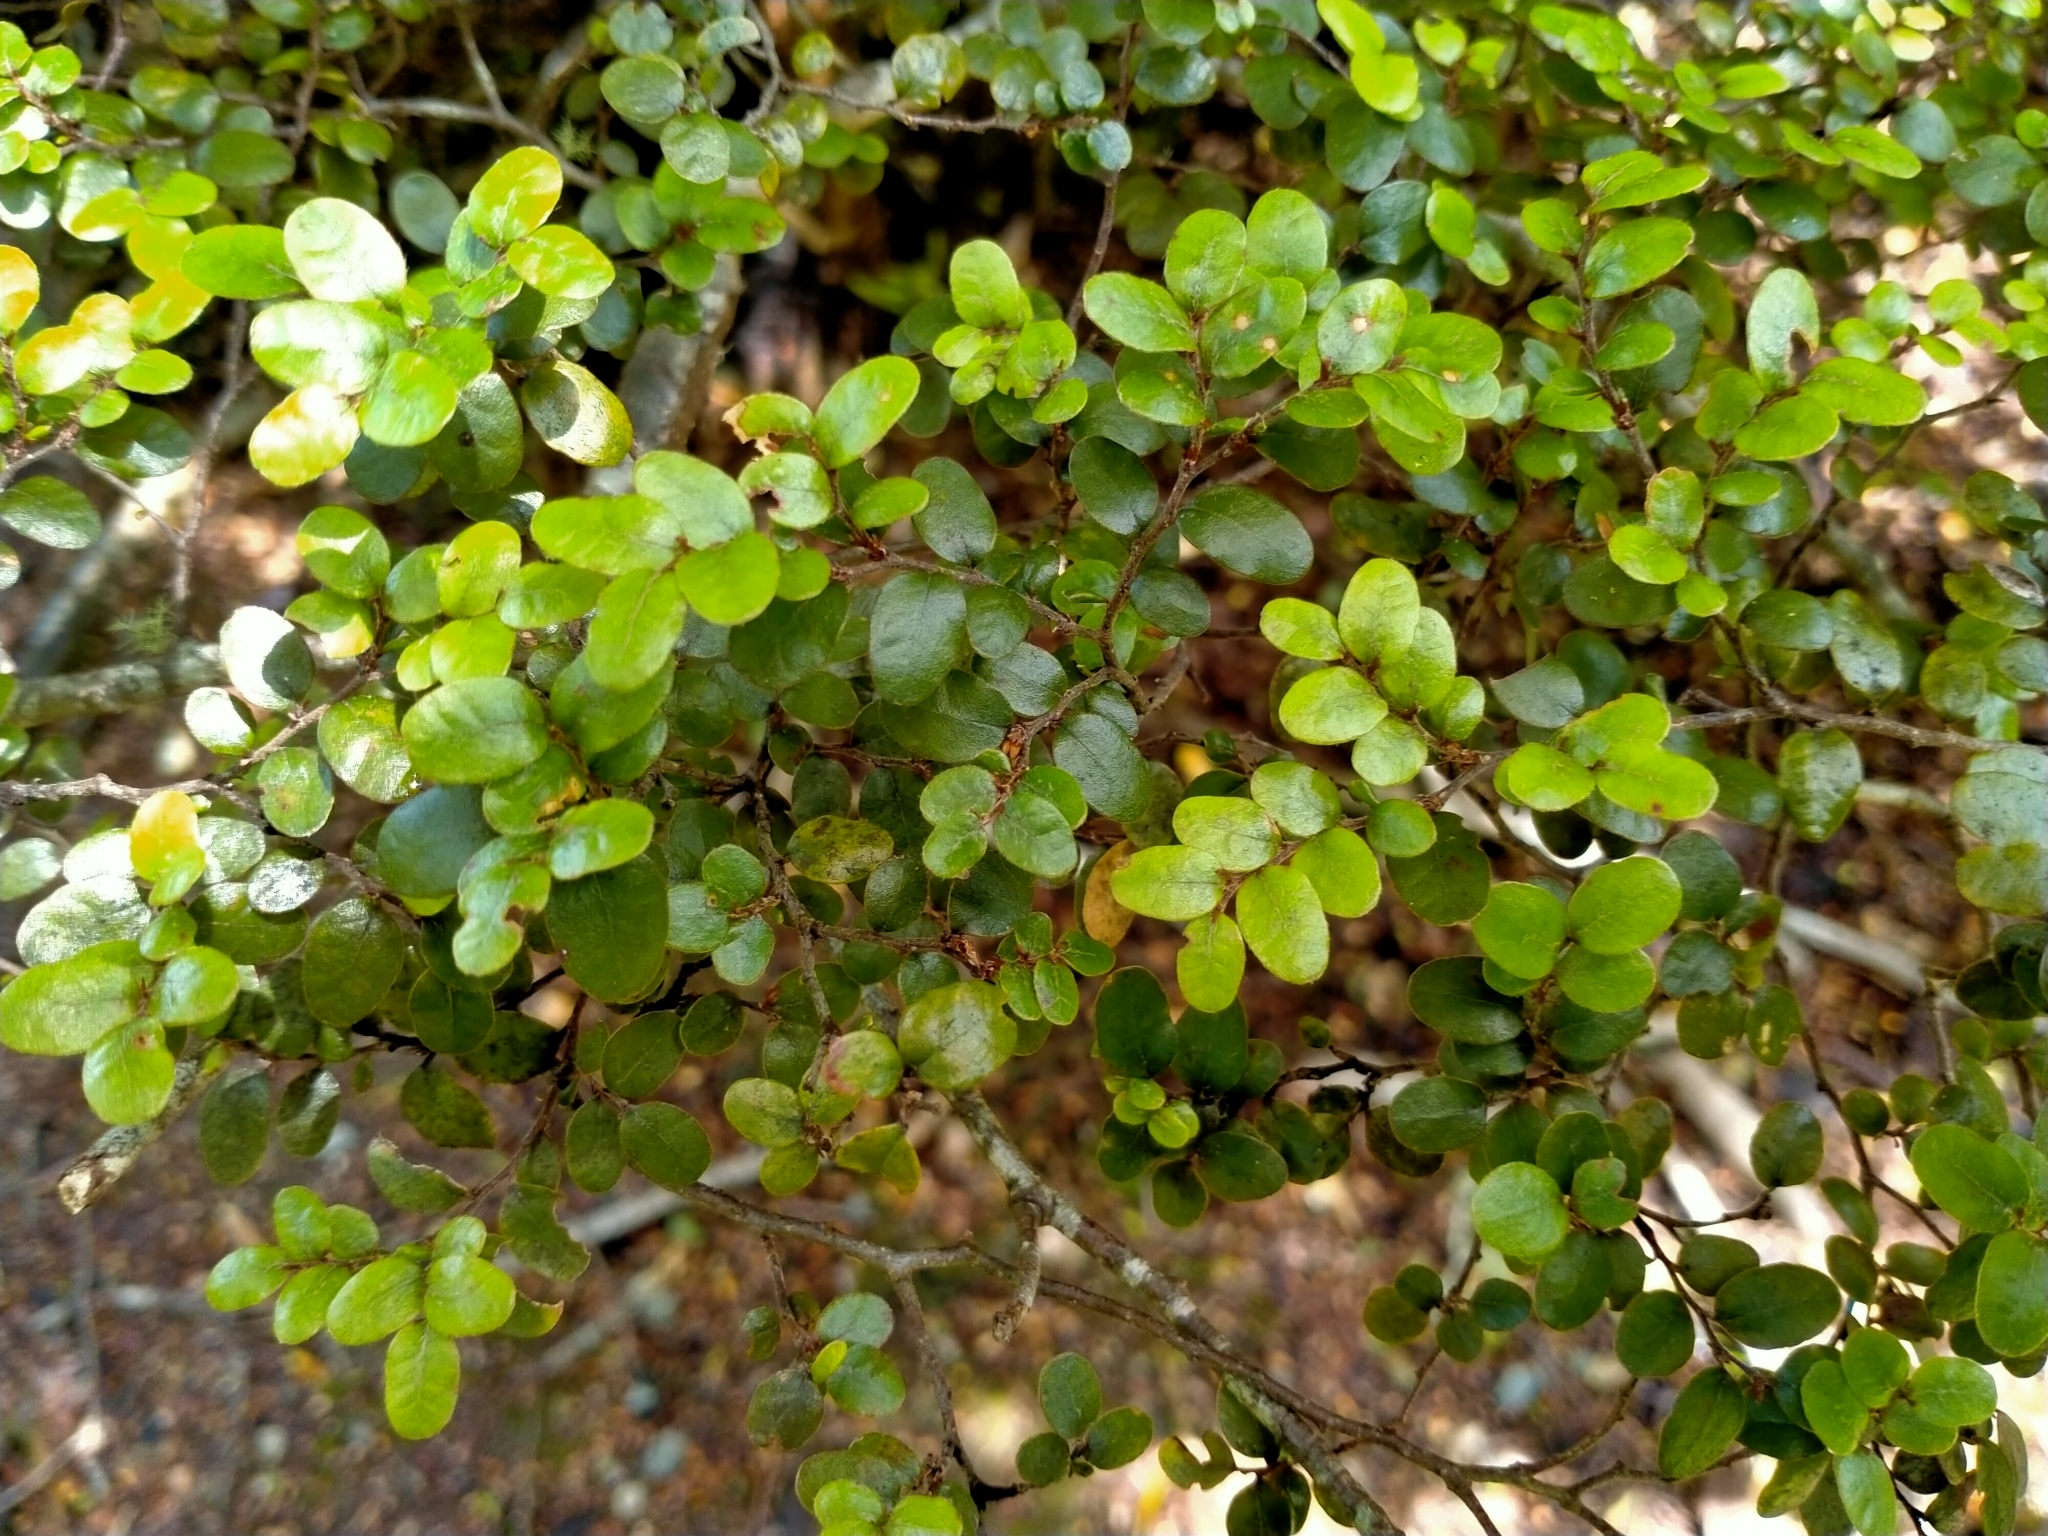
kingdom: Plantae
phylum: Tracheophyta
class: Magnoliopsida
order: Fagales
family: Nothofagaceae
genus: Nothofagus
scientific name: Nothofagus solandri
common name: Black beech
